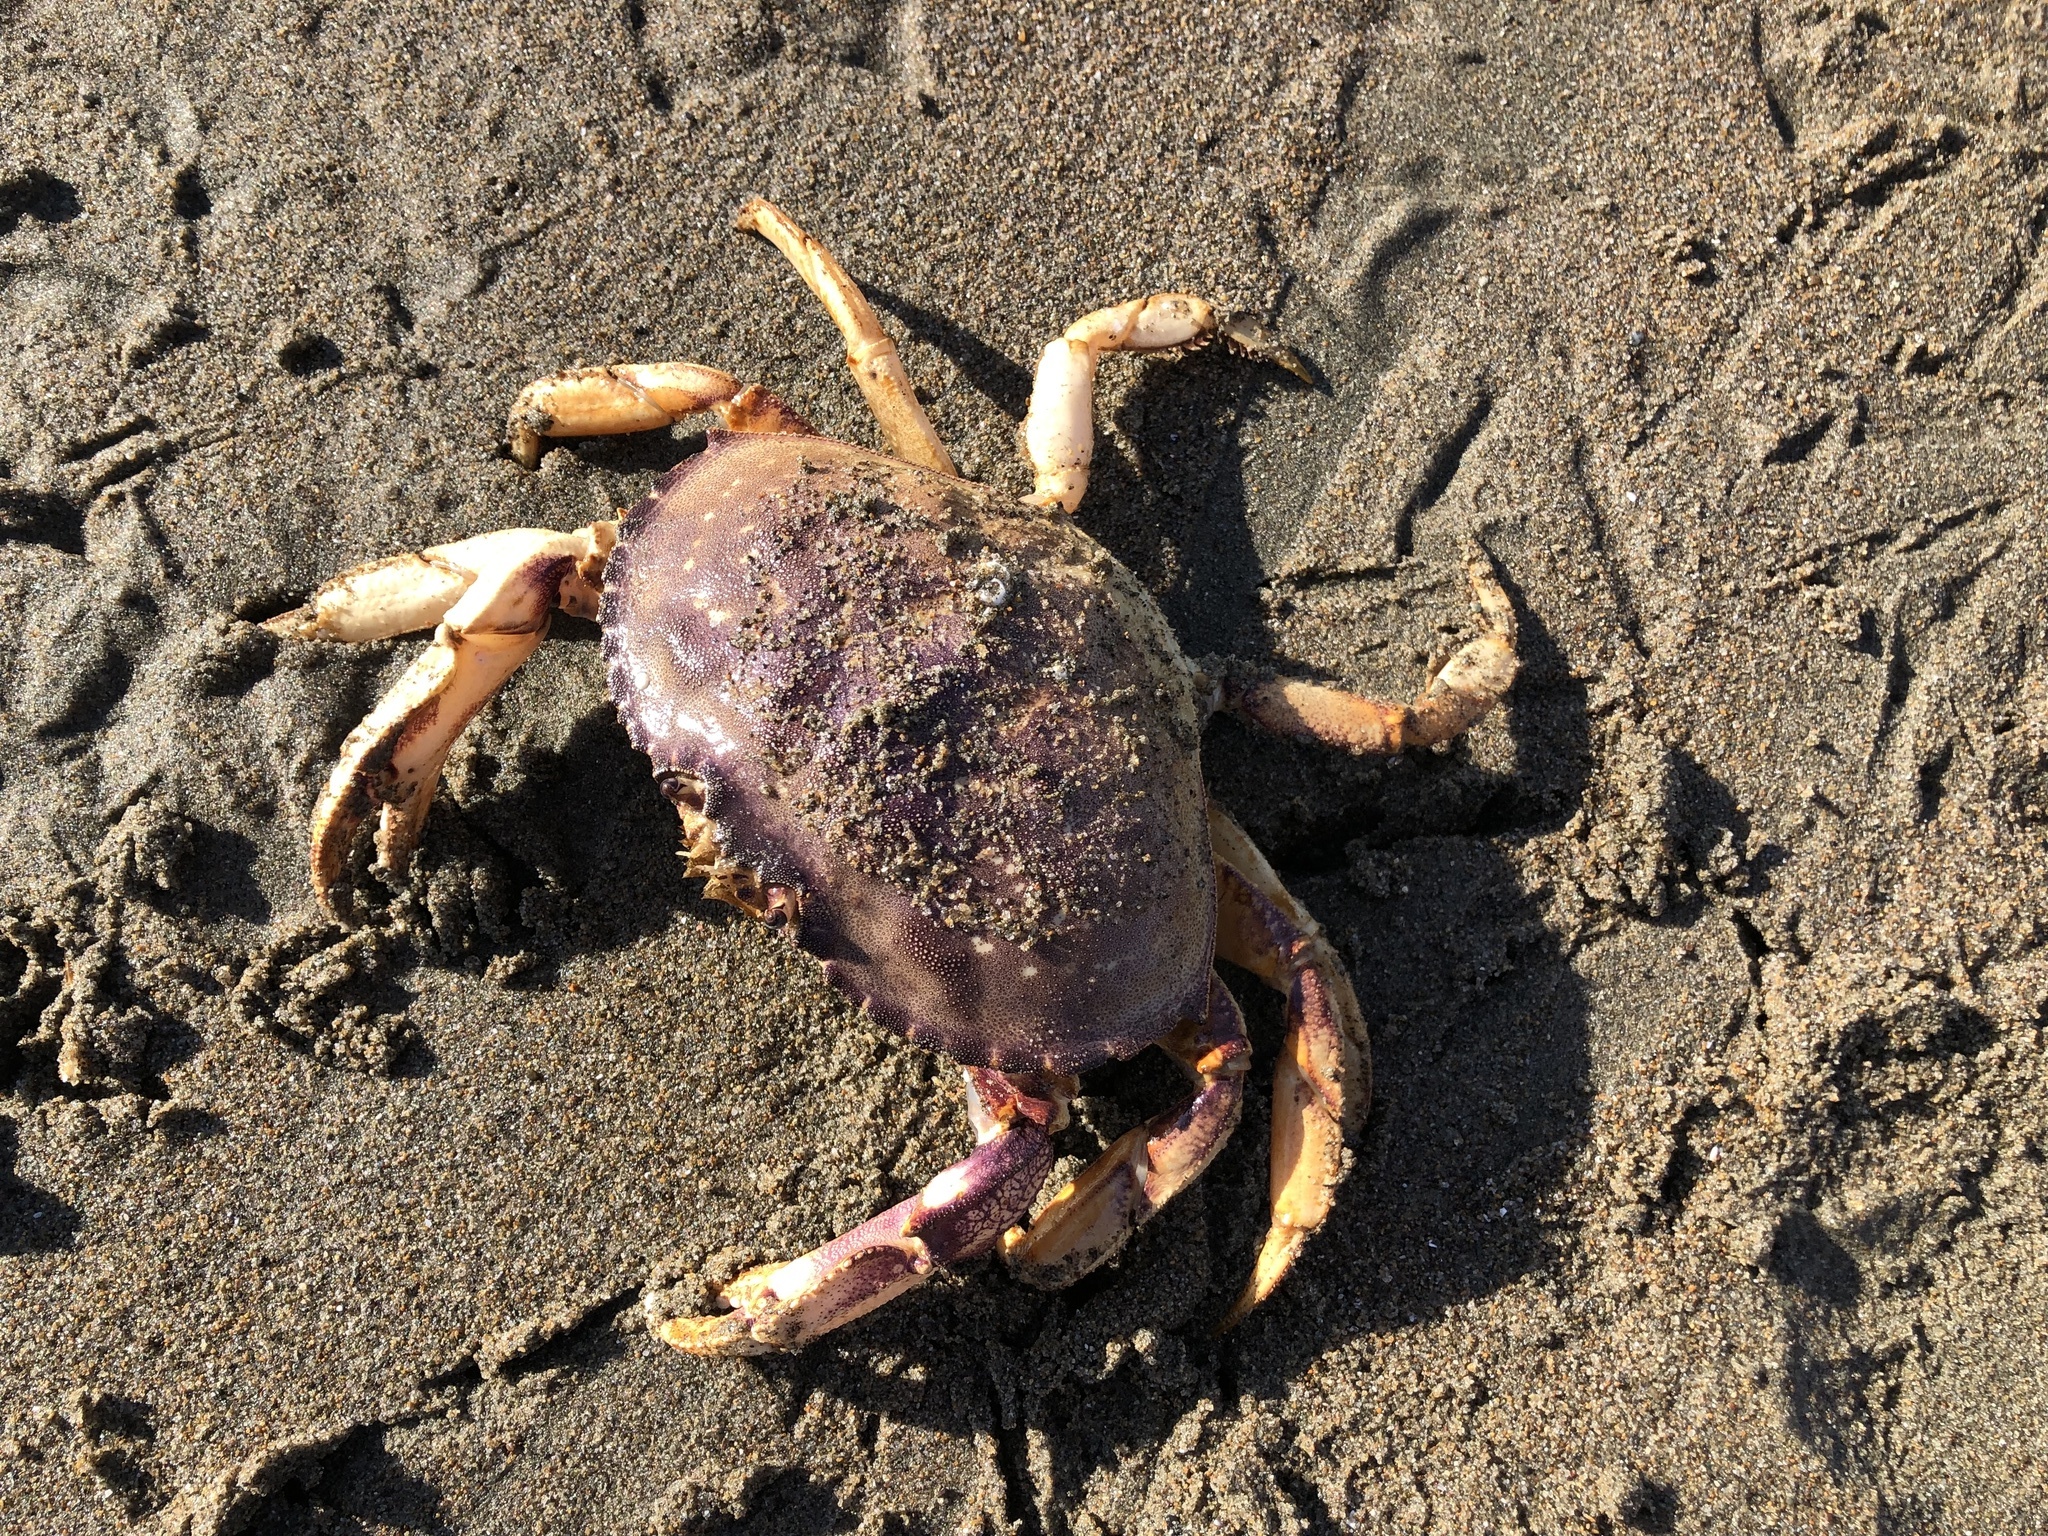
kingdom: Animalia
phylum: Arthropoda
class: Malacostraca
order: Decapoda
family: Cancridae
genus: Metacarcinus
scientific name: Metacarcinus magister
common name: Californian crab
